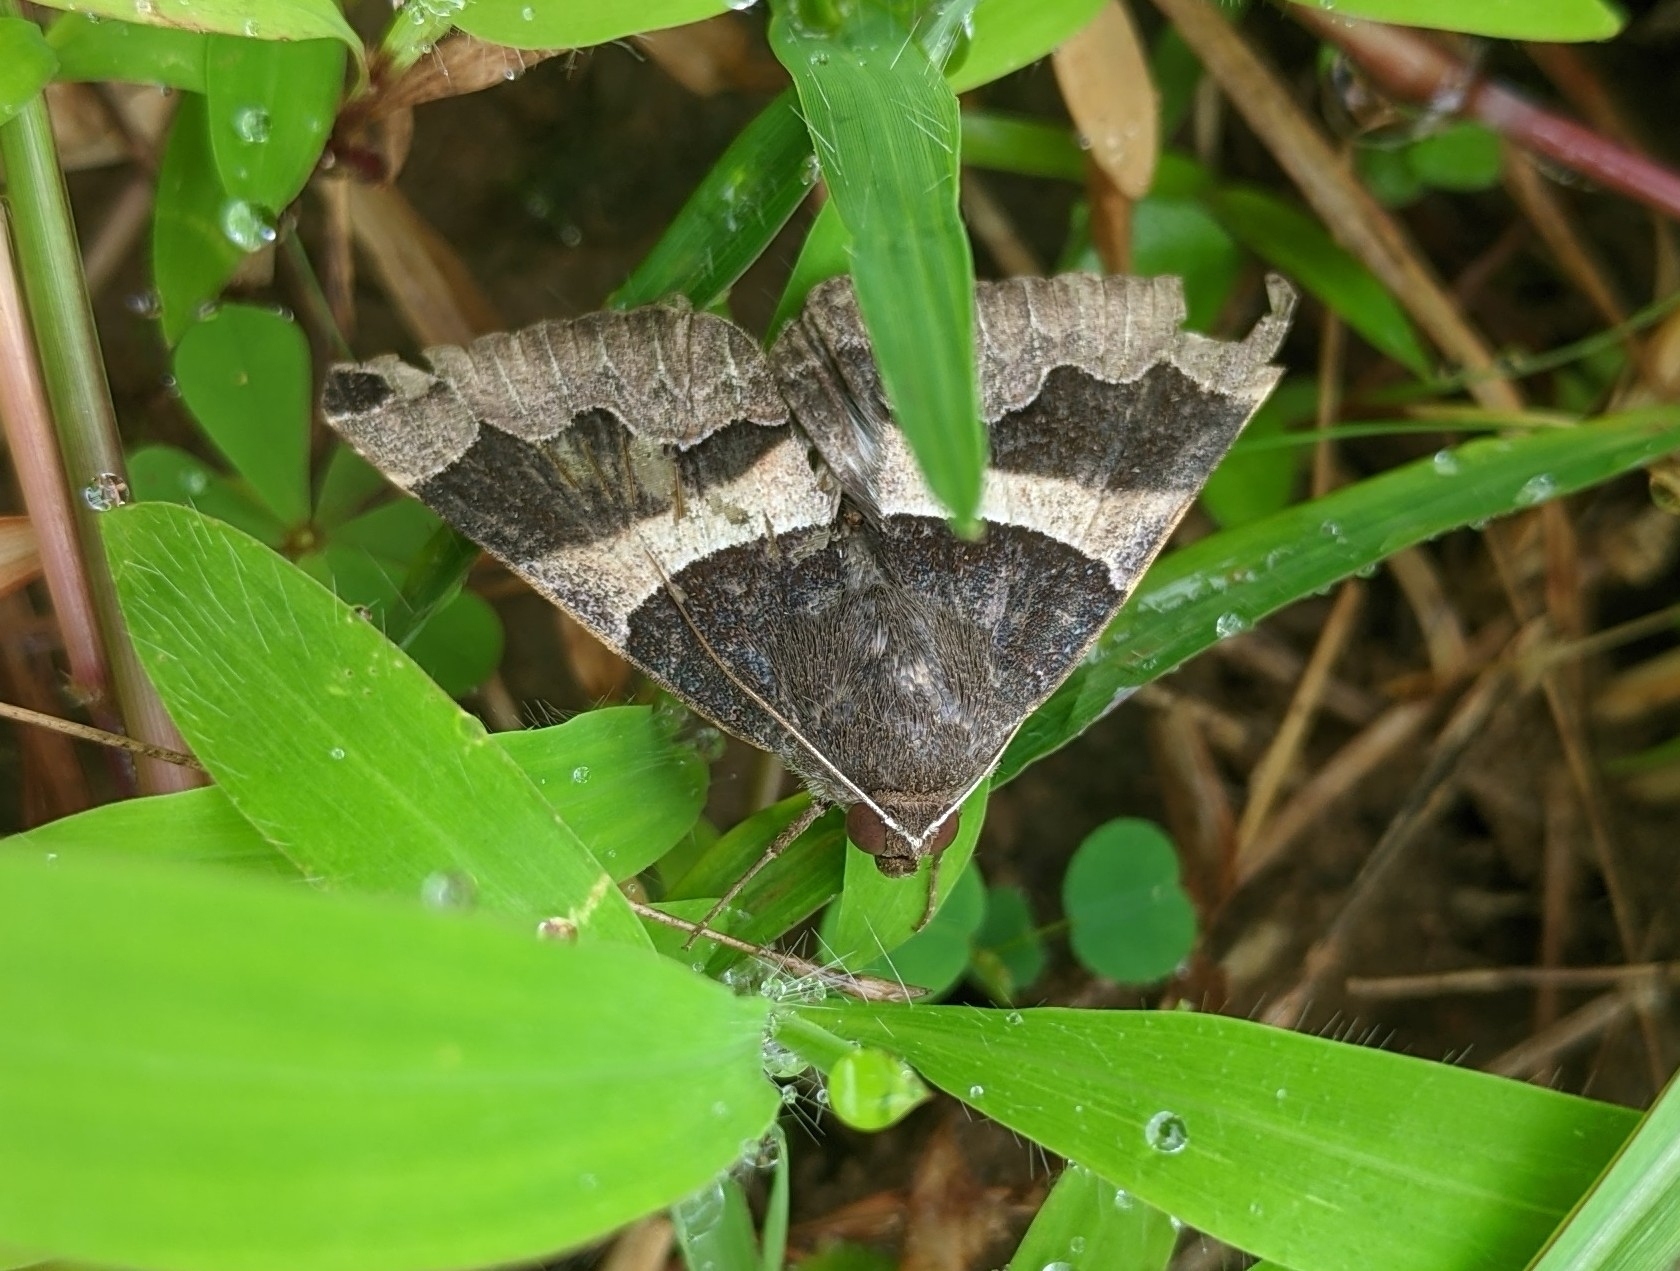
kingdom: Animalia
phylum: Arthropoda
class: Insecta
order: Lepidoptera
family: Erebidae
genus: Bastilla
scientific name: Bastilla
